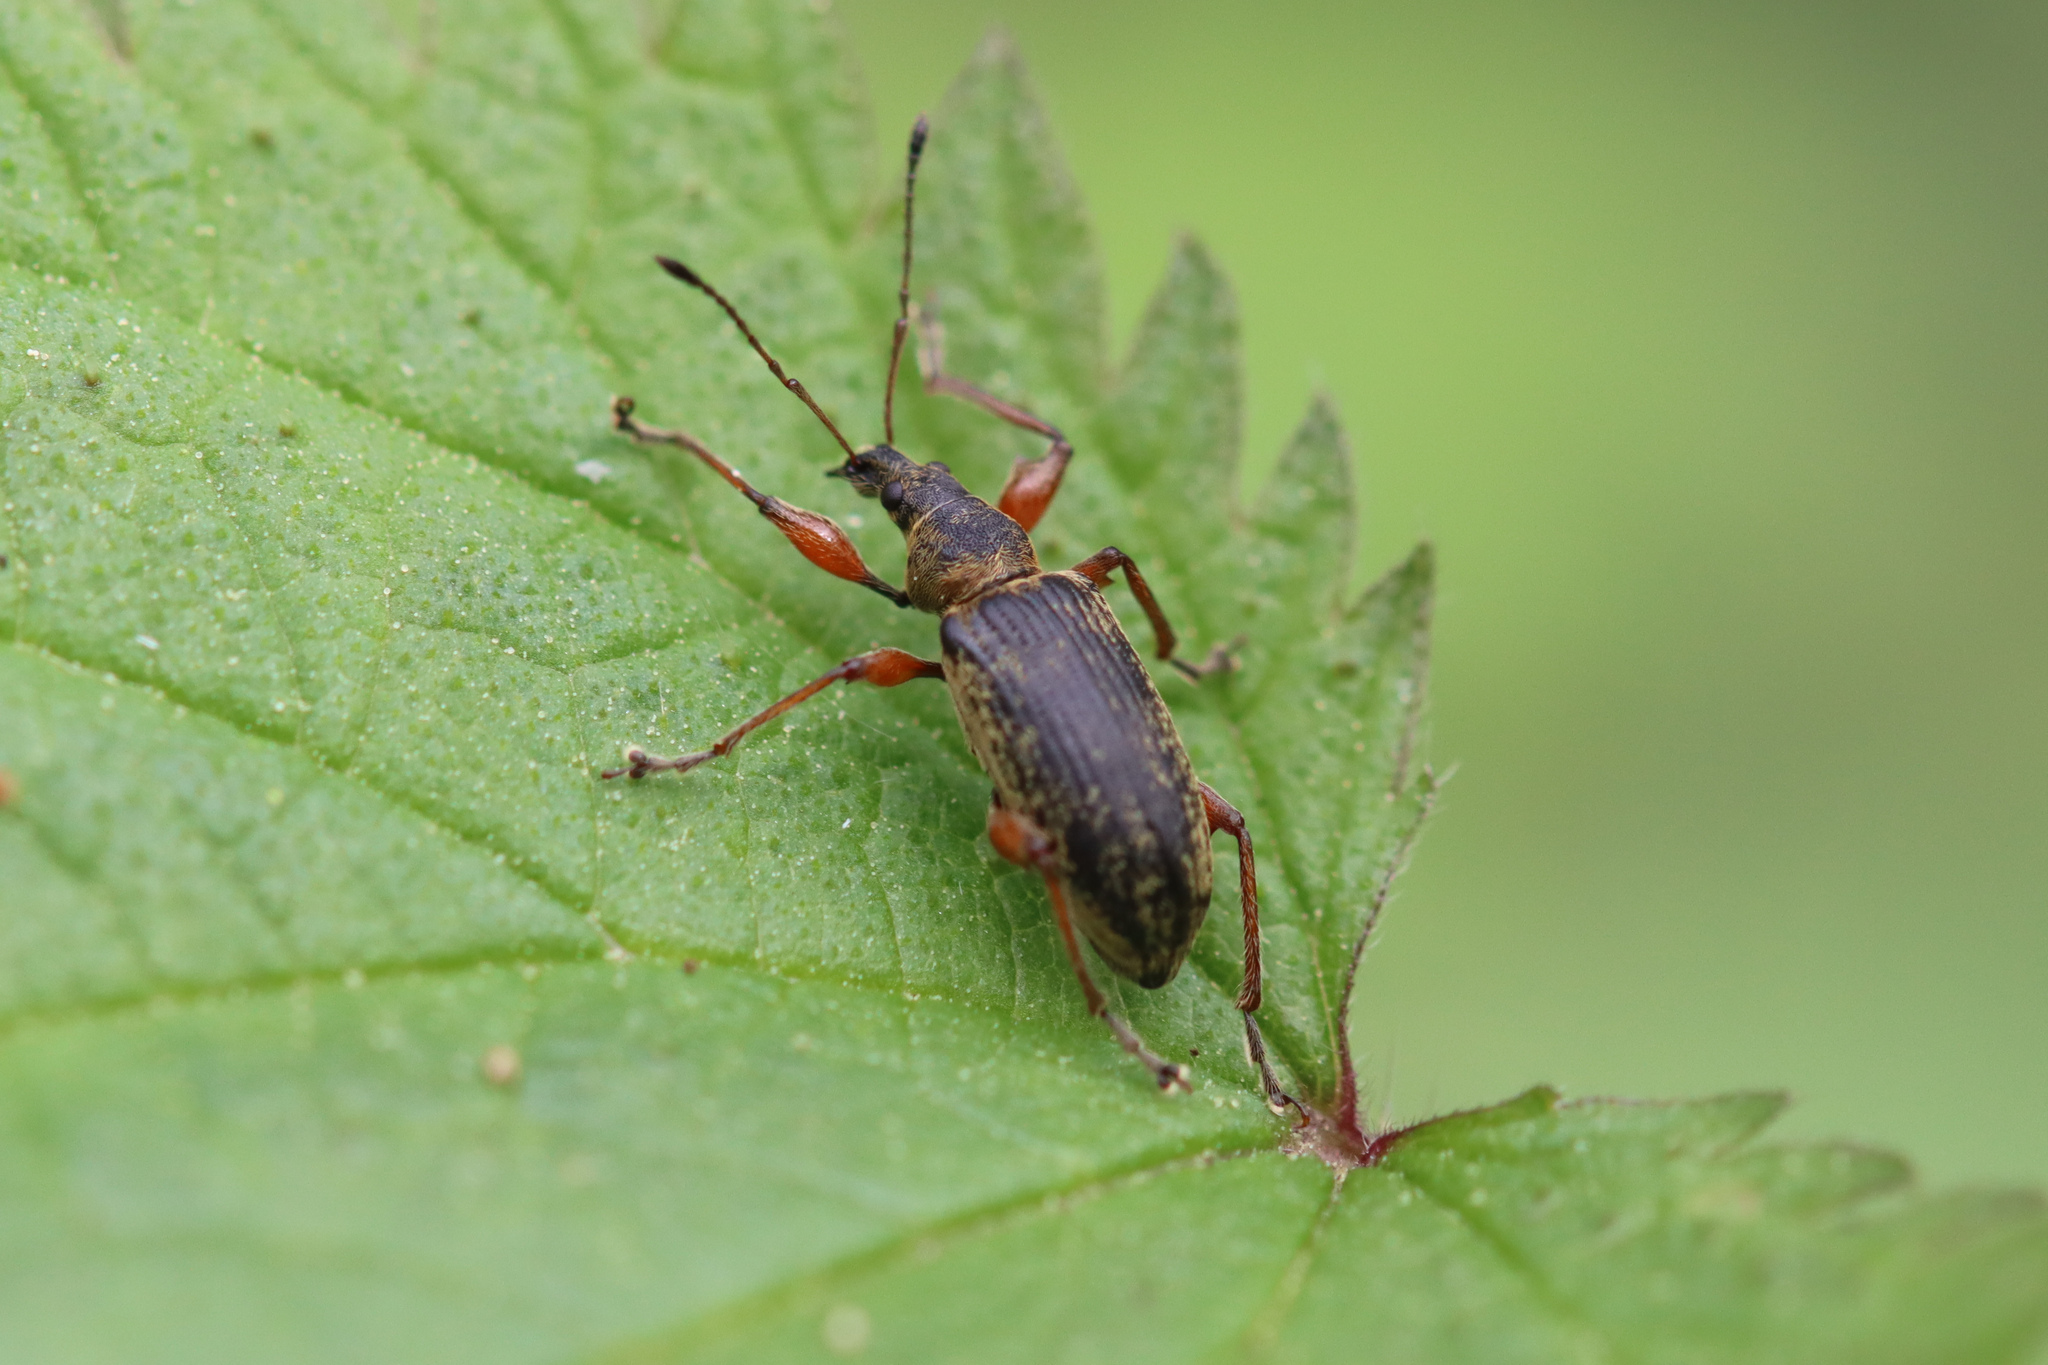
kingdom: Animalia
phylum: Arthropoda
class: Insecta
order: Coleoptera
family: Curculionidae
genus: Phyllobius
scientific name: Phyllobius glaucus
